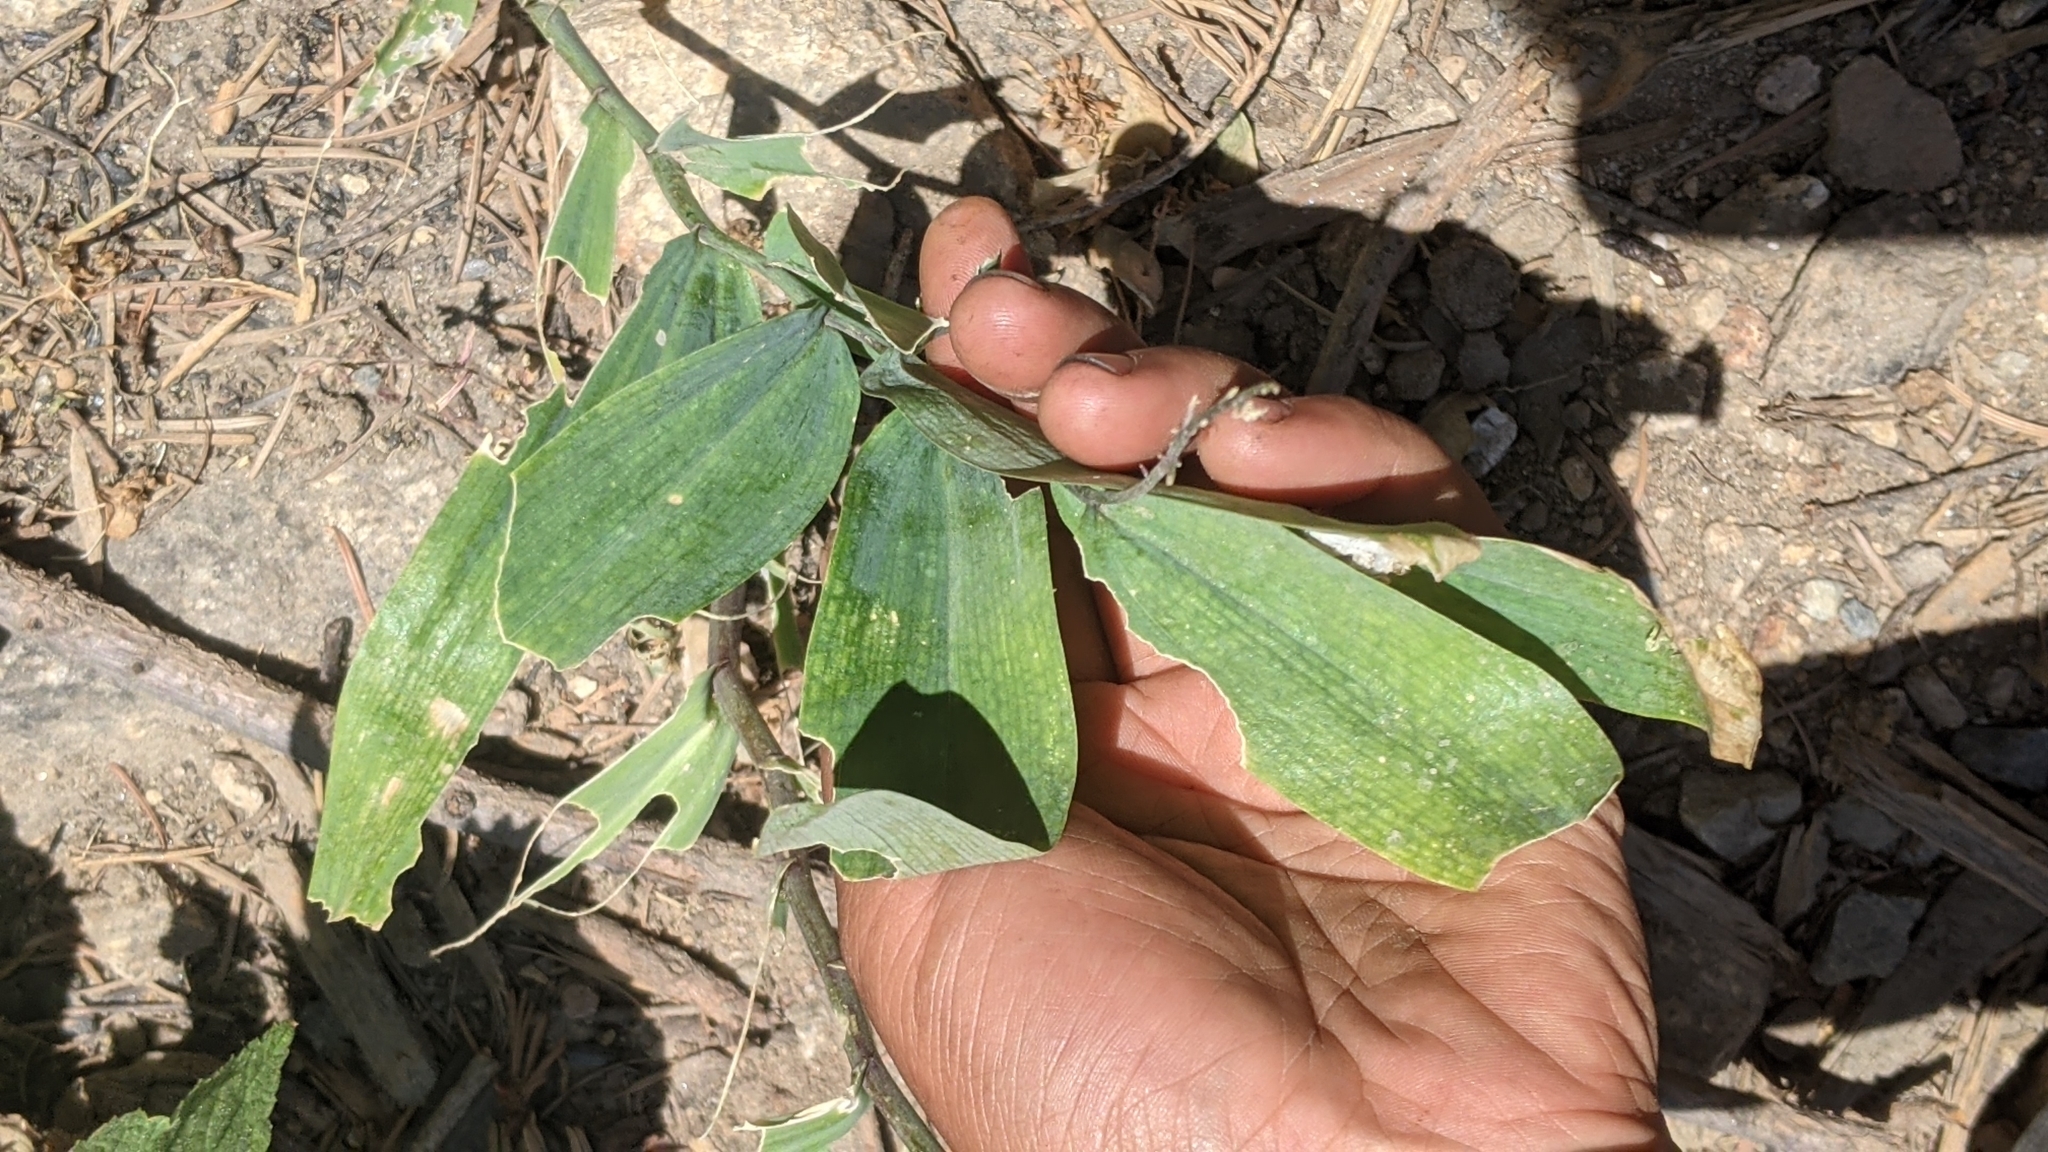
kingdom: Plantae
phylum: Tracheophyta
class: Liliopsida
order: Asparagales
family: Asparagaceae
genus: Maianthemum
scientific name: Maianthemum racemosum
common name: False spikenard
